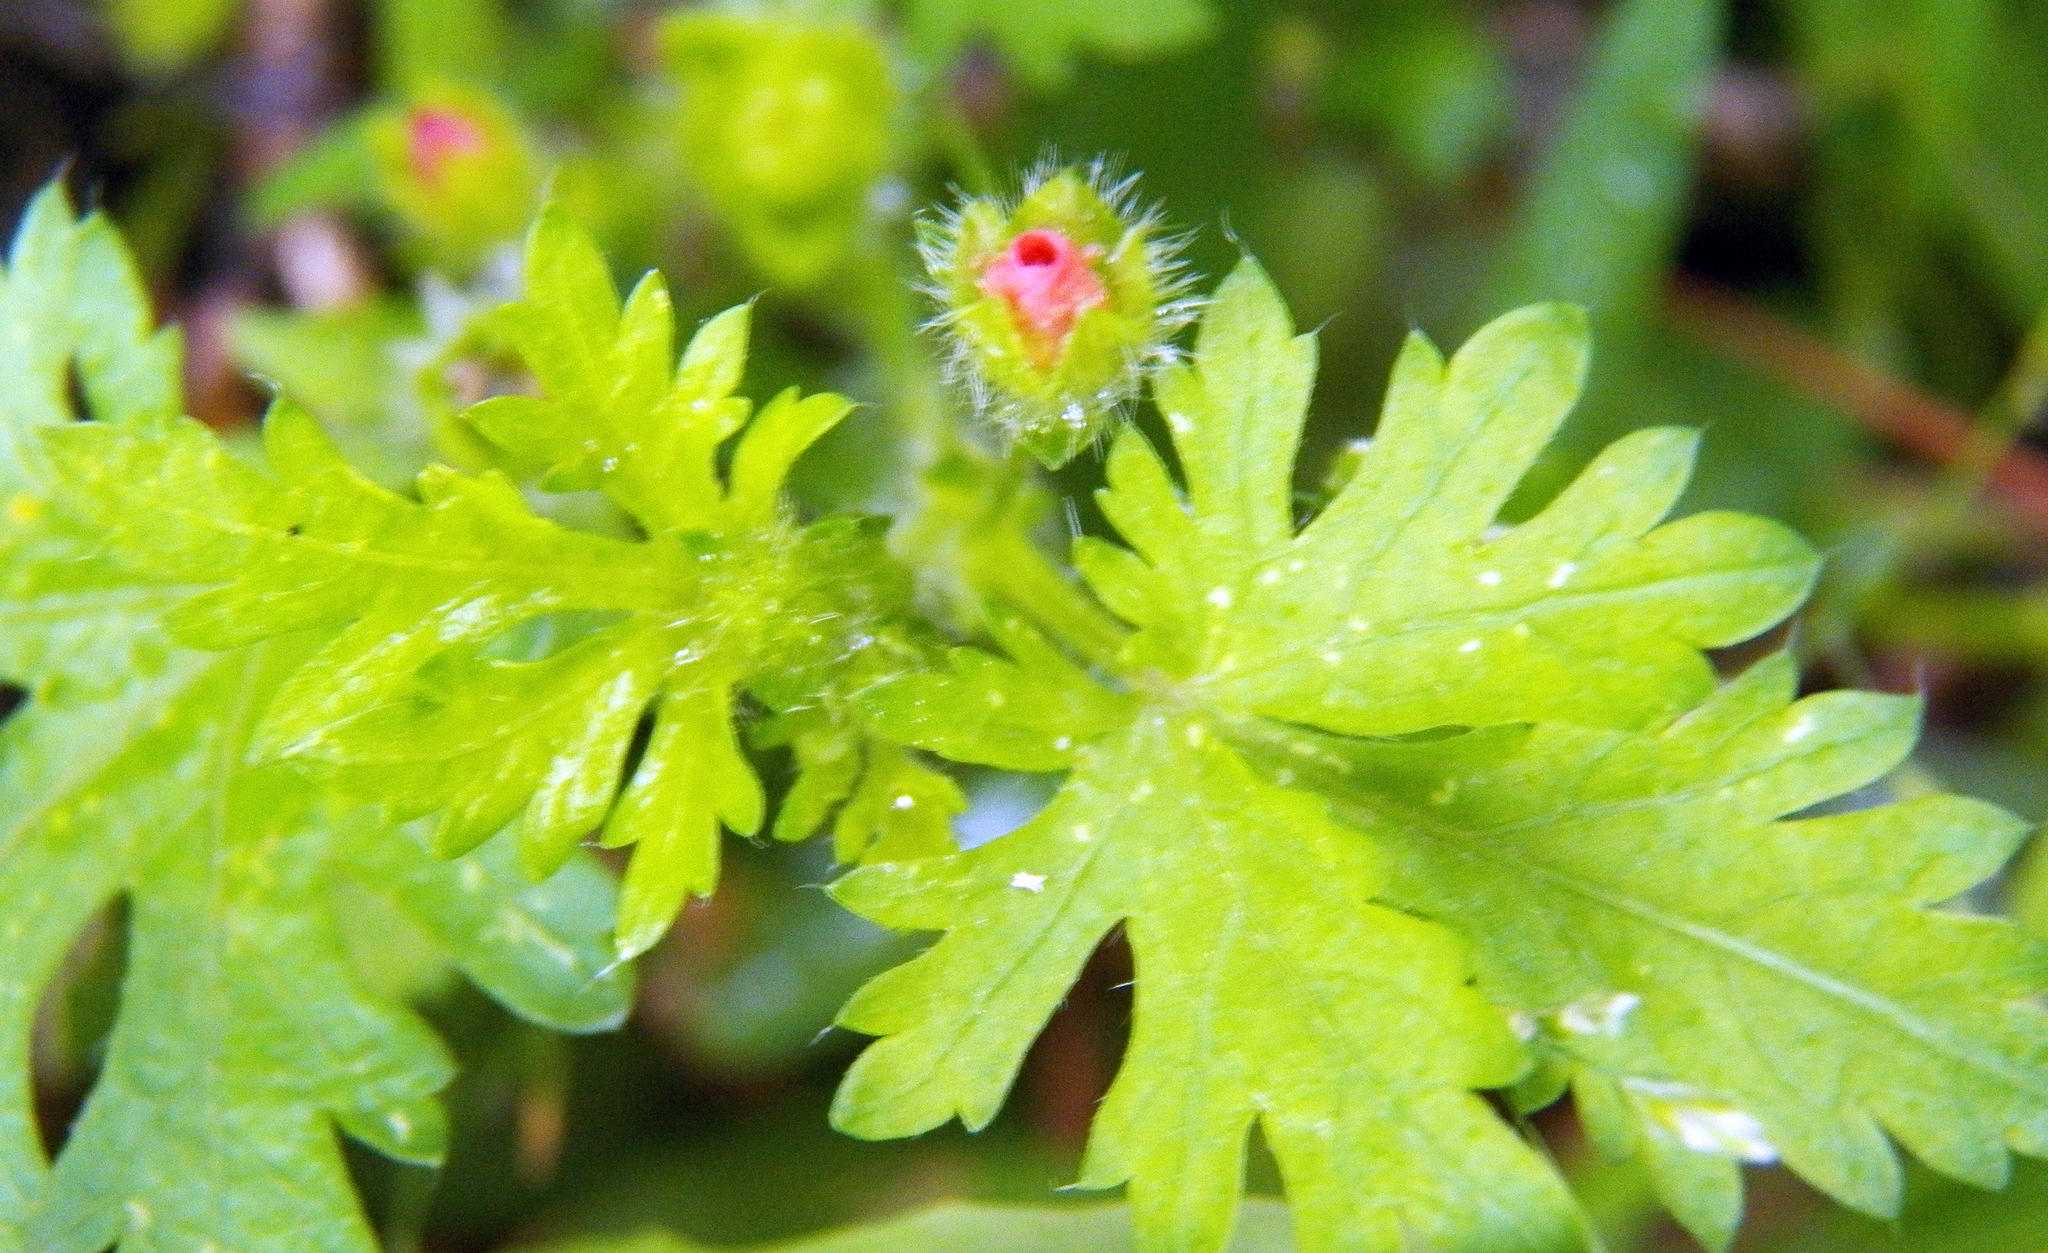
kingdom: Plantae
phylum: Tracheophyta
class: Magnoliopsida
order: Malvales
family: Malvaceae
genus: Modiola
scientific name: Modiola caroliniana
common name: Carolina bristlemallow
